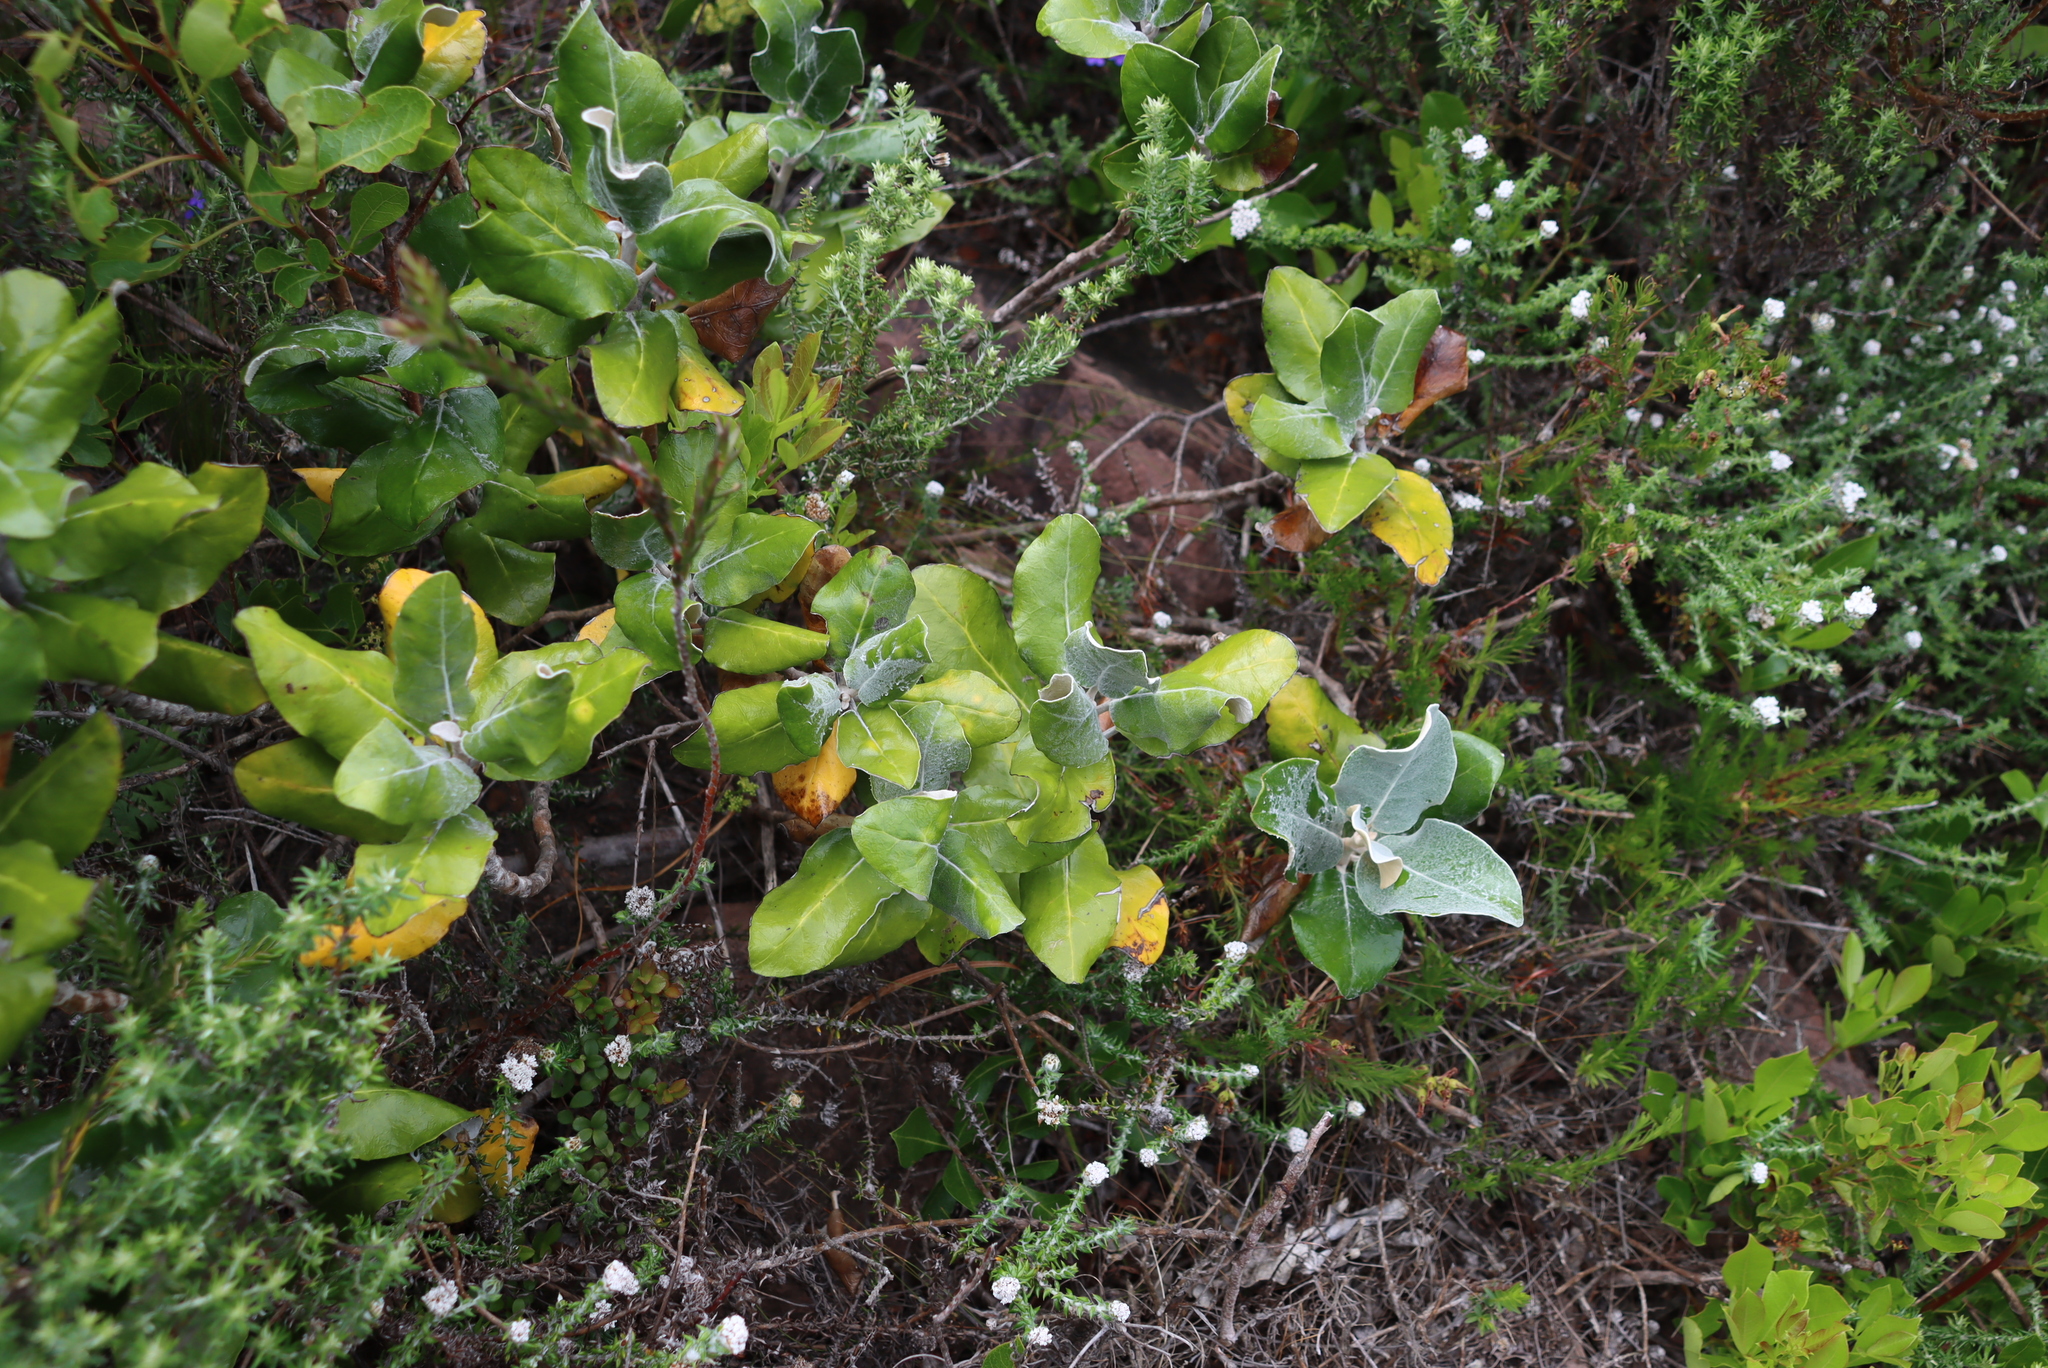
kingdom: Plantae
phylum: Tracheophyta
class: Magnoliopsida
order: Asterales
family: Asteraceae
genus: Capelio
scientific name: Capelio tabularis
